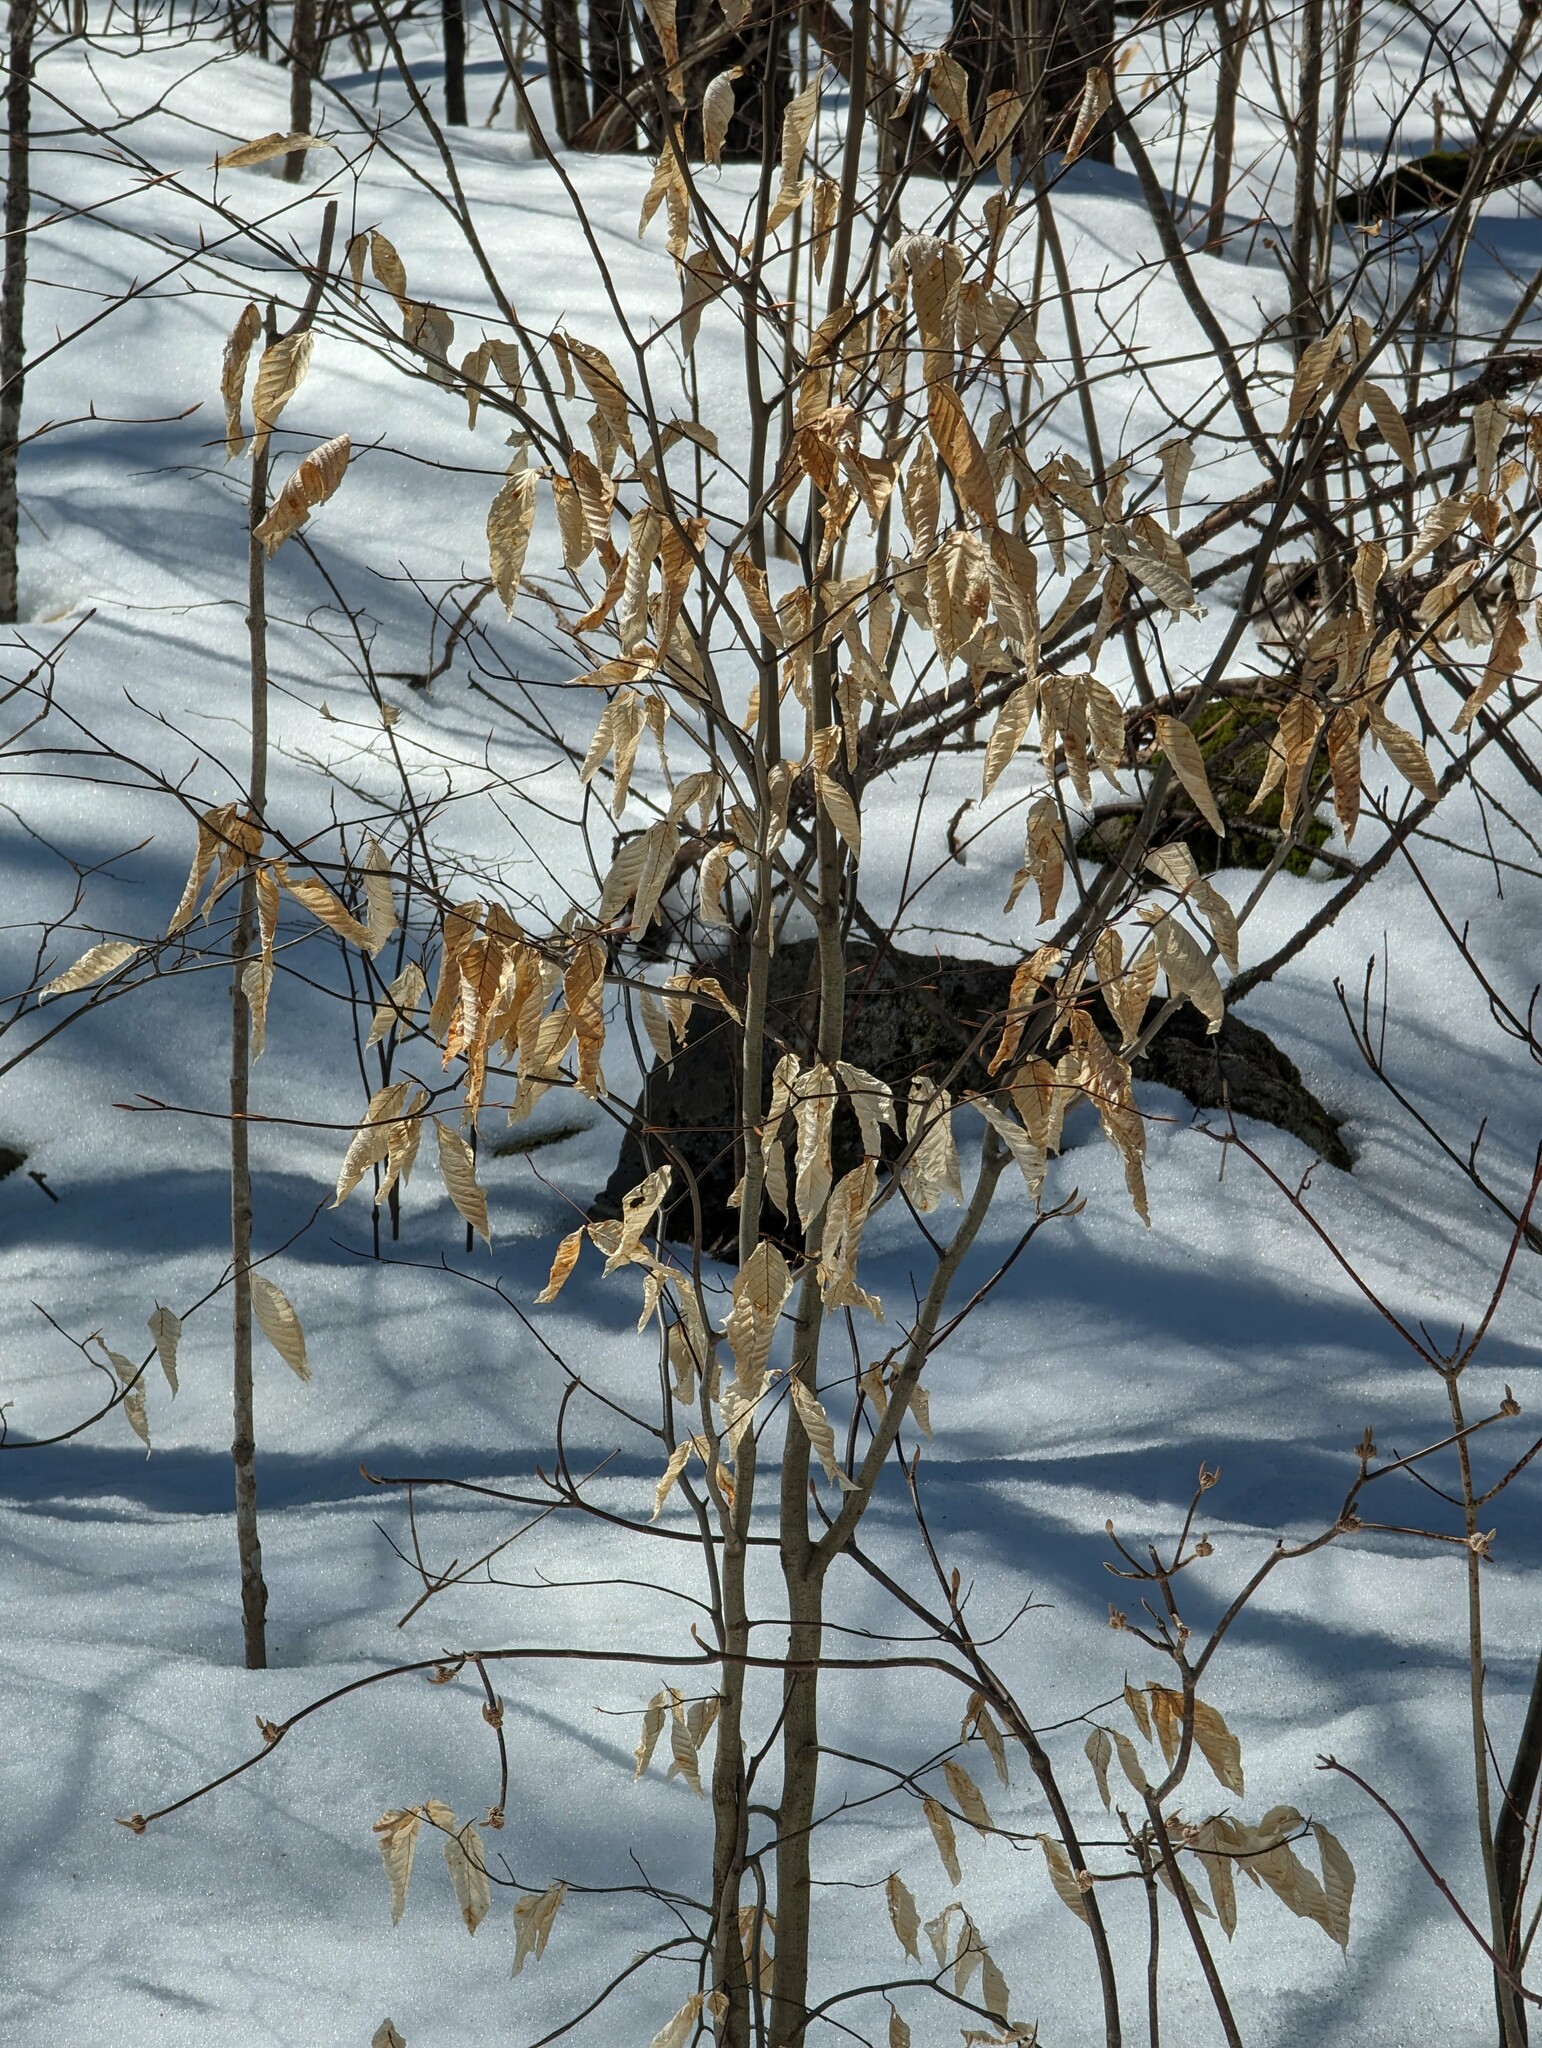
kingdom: Plantae
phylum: Tracheophyta
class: Magnoliopsida
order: Fagales
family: Fagaceae
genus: Fagus
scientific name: Fagus grandifolia
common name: American beech
